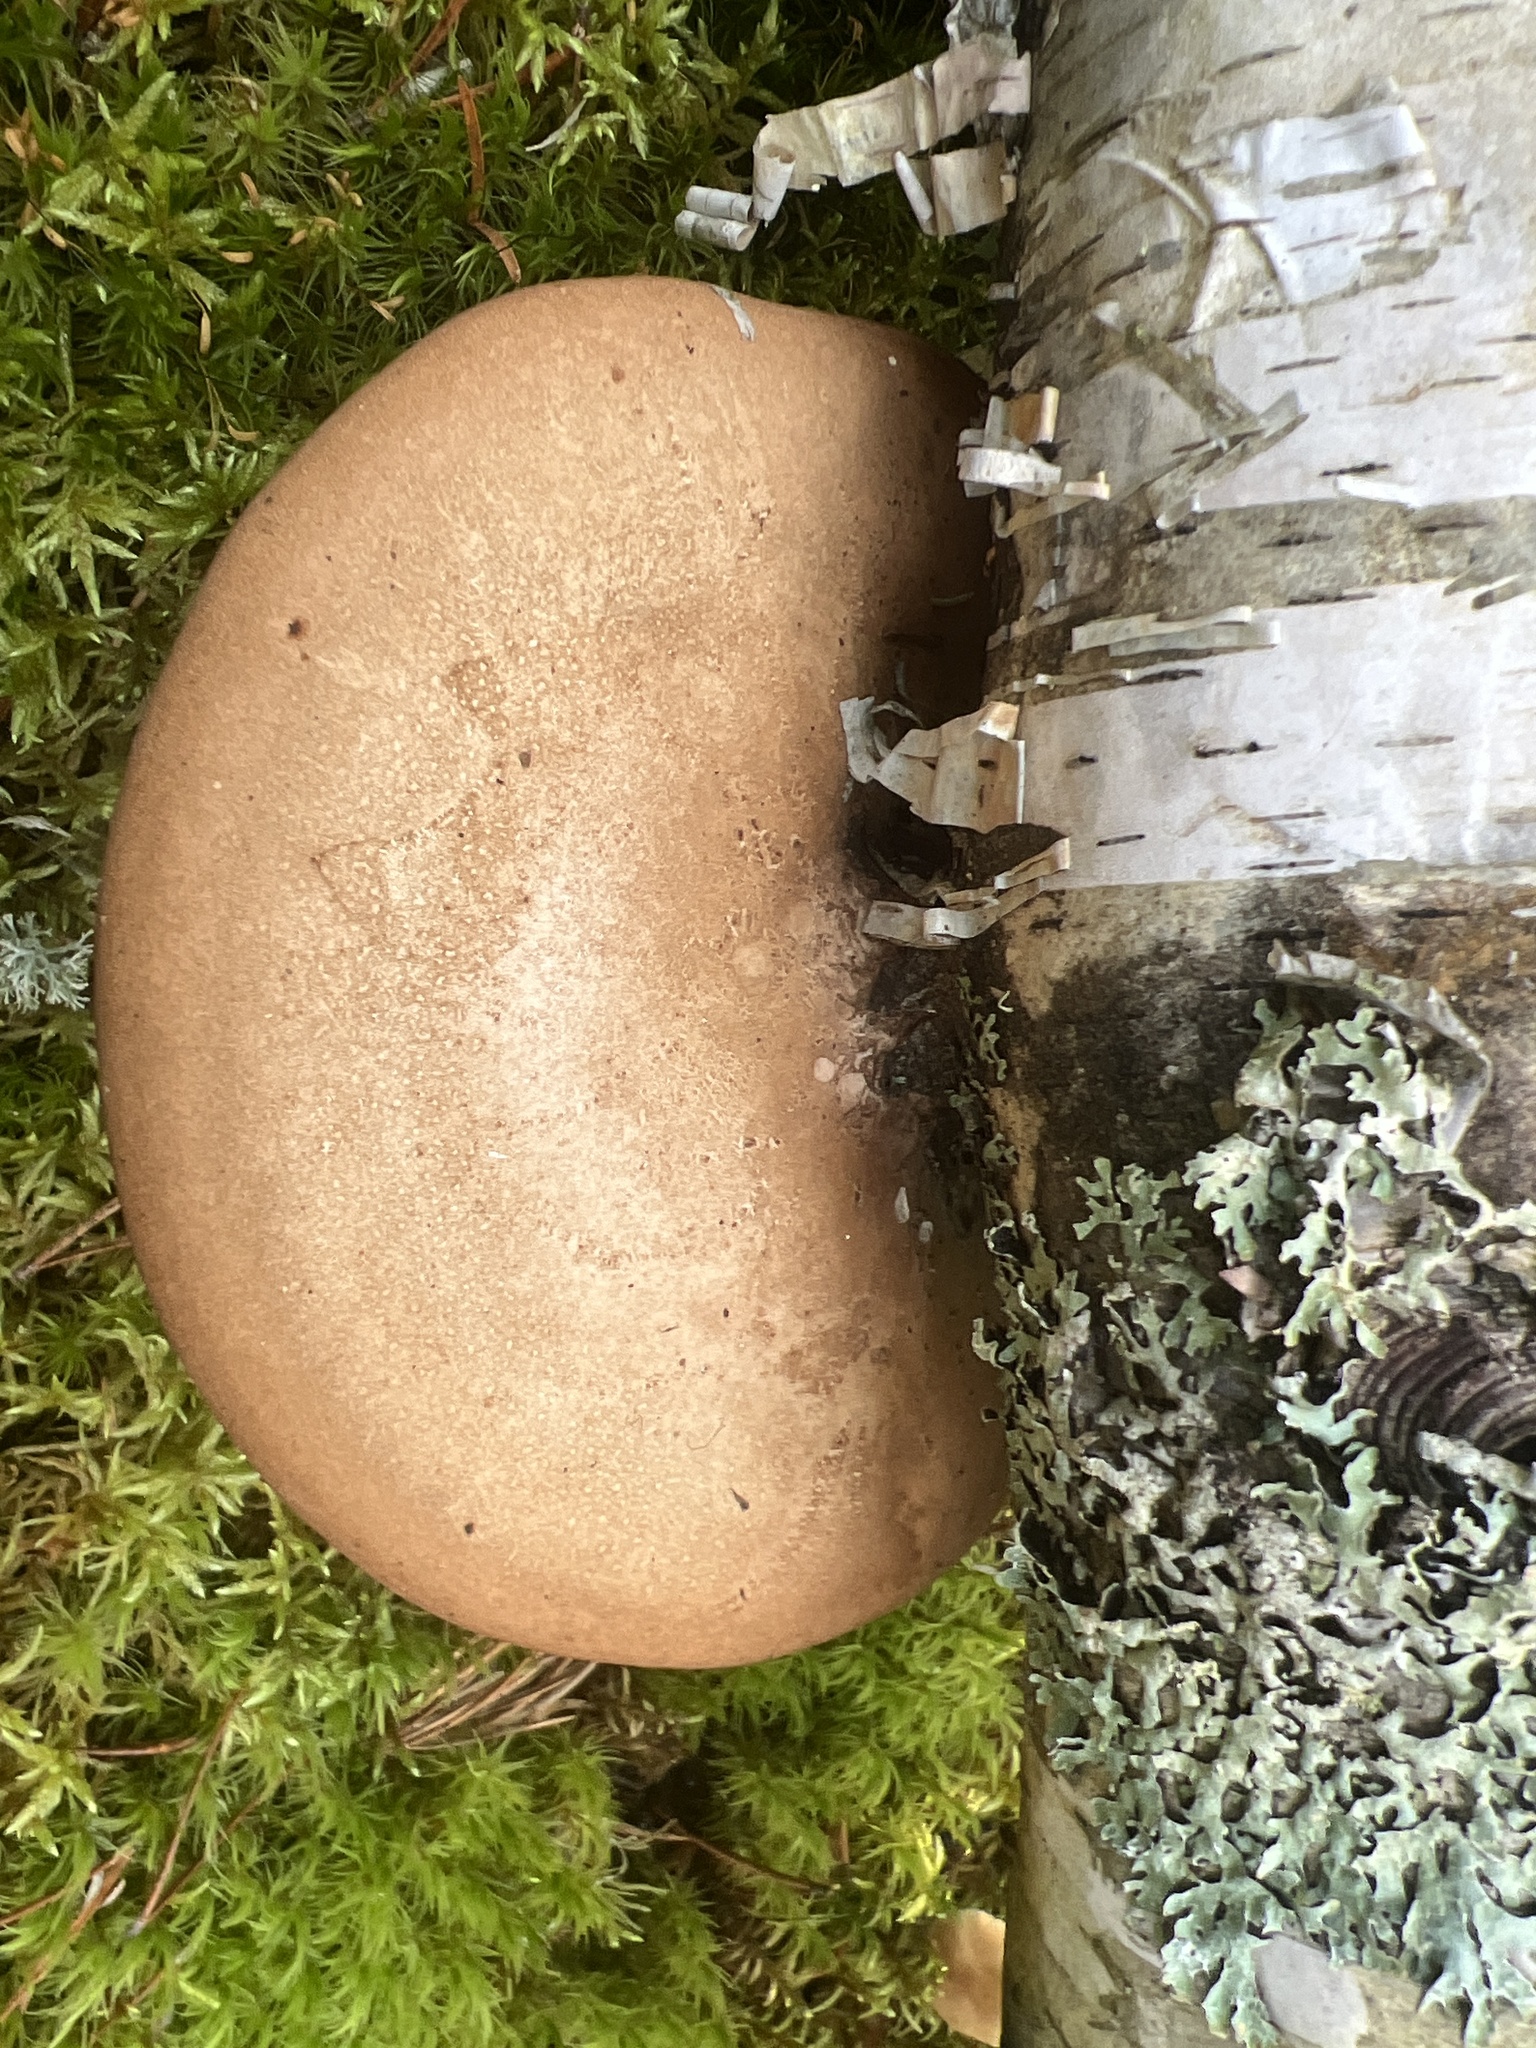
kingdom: Fungi
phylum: Basidiomycota
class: Agaricomycetes
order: Polyporales
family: Fomitopsidaceae
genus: Fomitopsis
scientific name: Fomitopsis betulina
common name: Birch polypore
